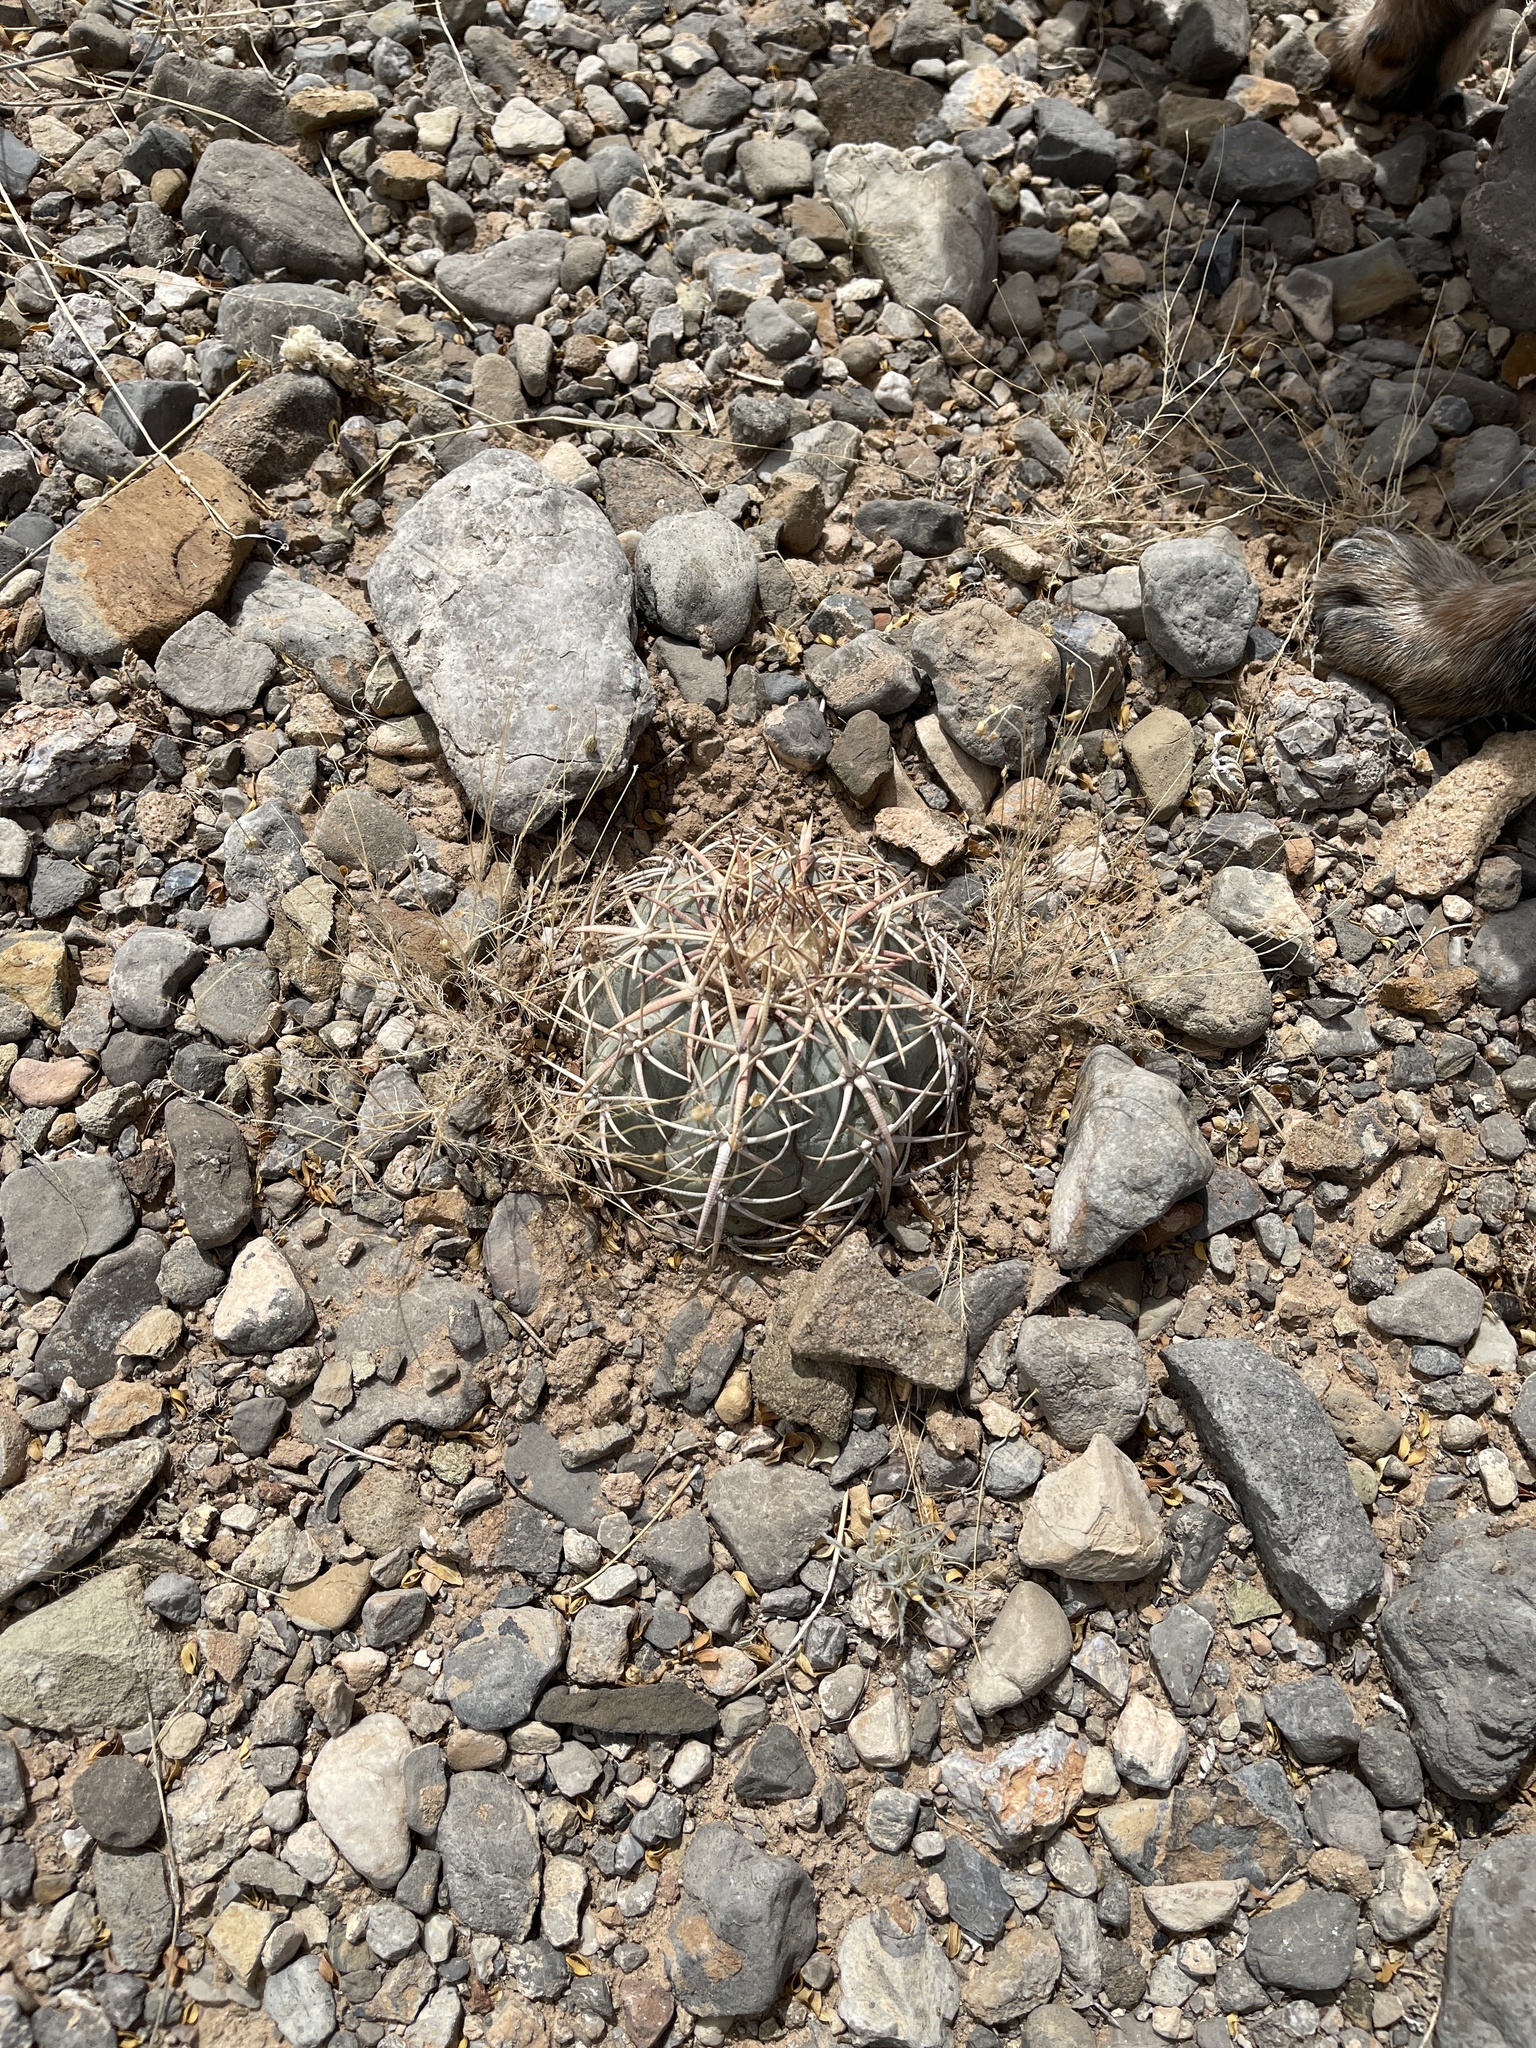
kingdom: Plantae
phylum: Tracheophyta
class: Magnoliopsida
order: Caryophyllales
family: Cactaceae
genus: Echinocactus
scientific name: Echinocactus horizonthalonius
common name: Devilshead
